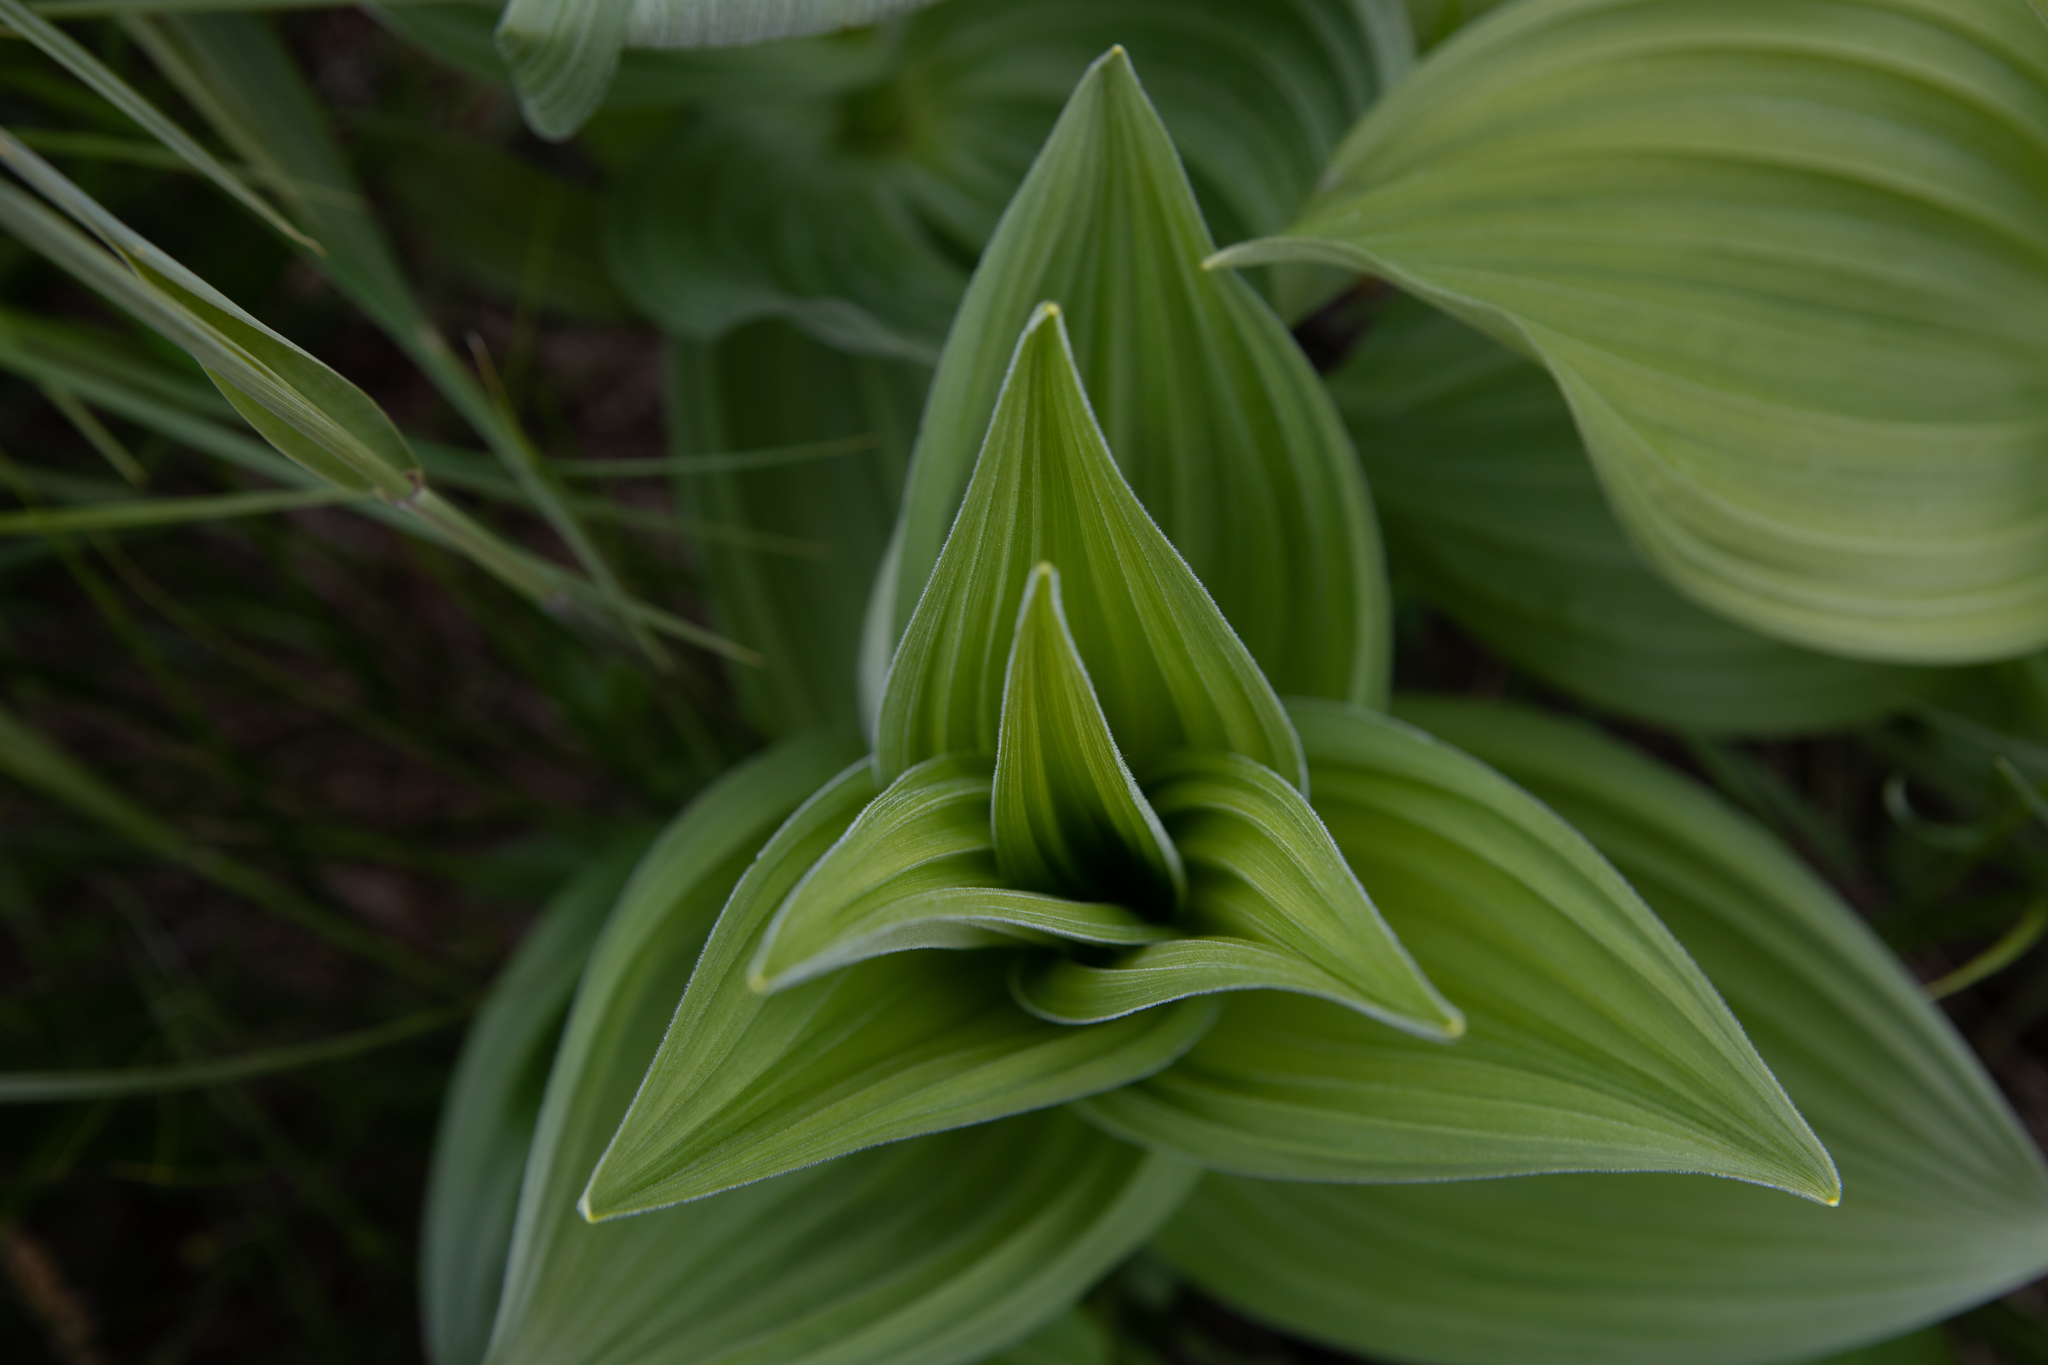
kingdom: Plantae
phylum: Tracheophyta
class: Liliopsida
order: Liliales
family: Melanthiaceae
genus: Veratrum
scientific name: Veratrum lobelianum
